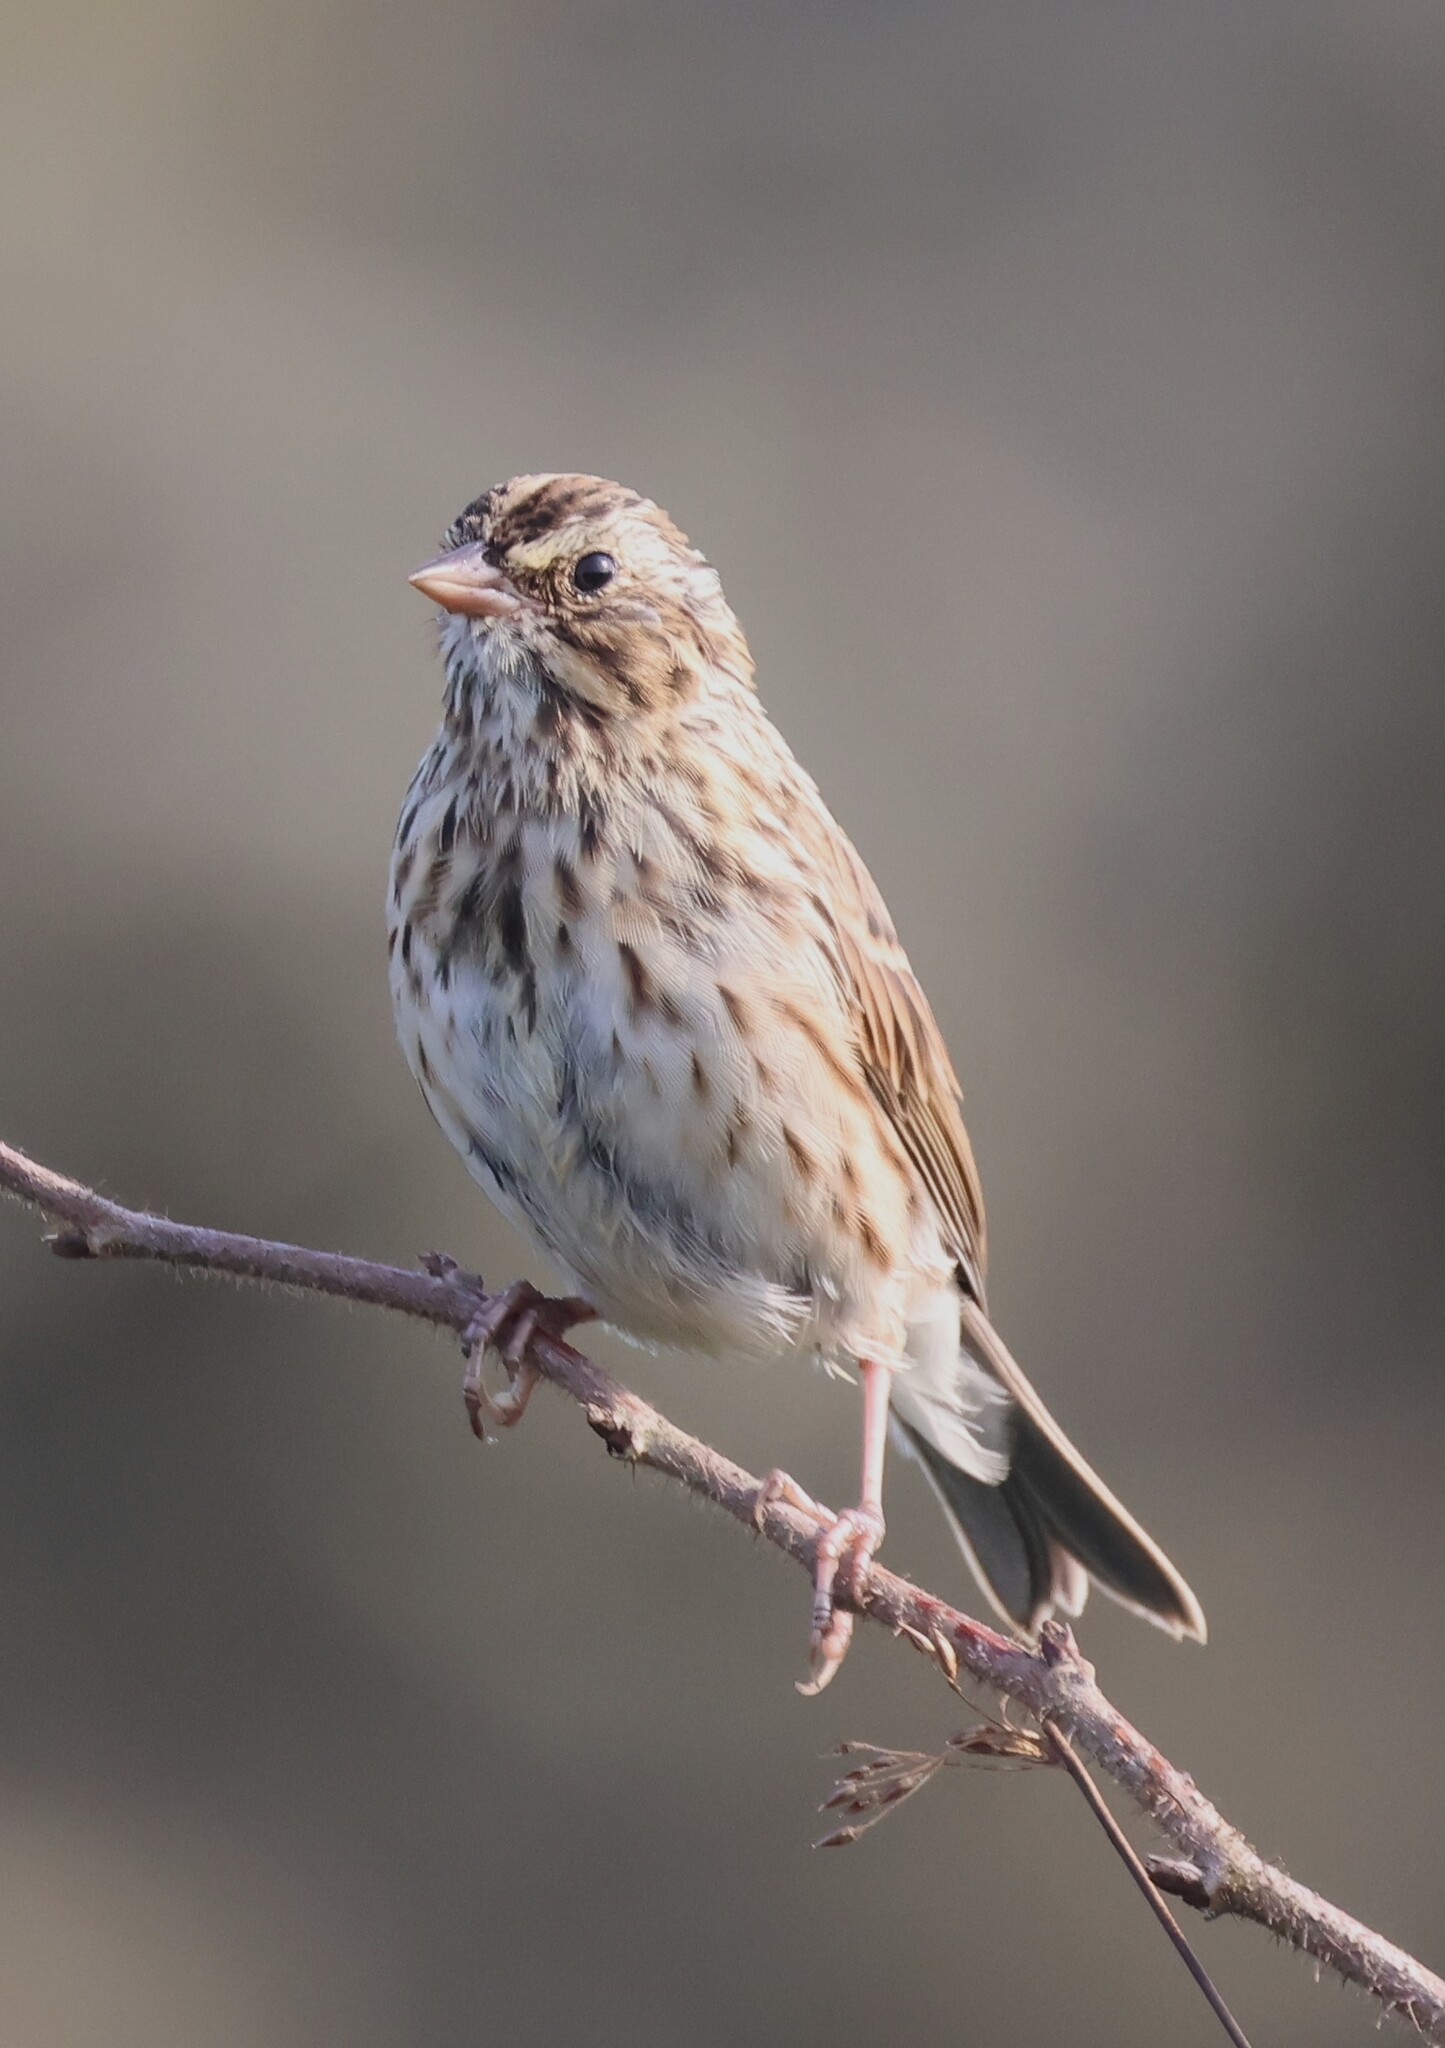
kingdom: Animalia
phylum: Chordata
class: Aves
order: Passeriformes
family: Passerellidae
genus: Passerculus
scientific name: Passerculus sandwichensis
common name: Savannah sparrow
